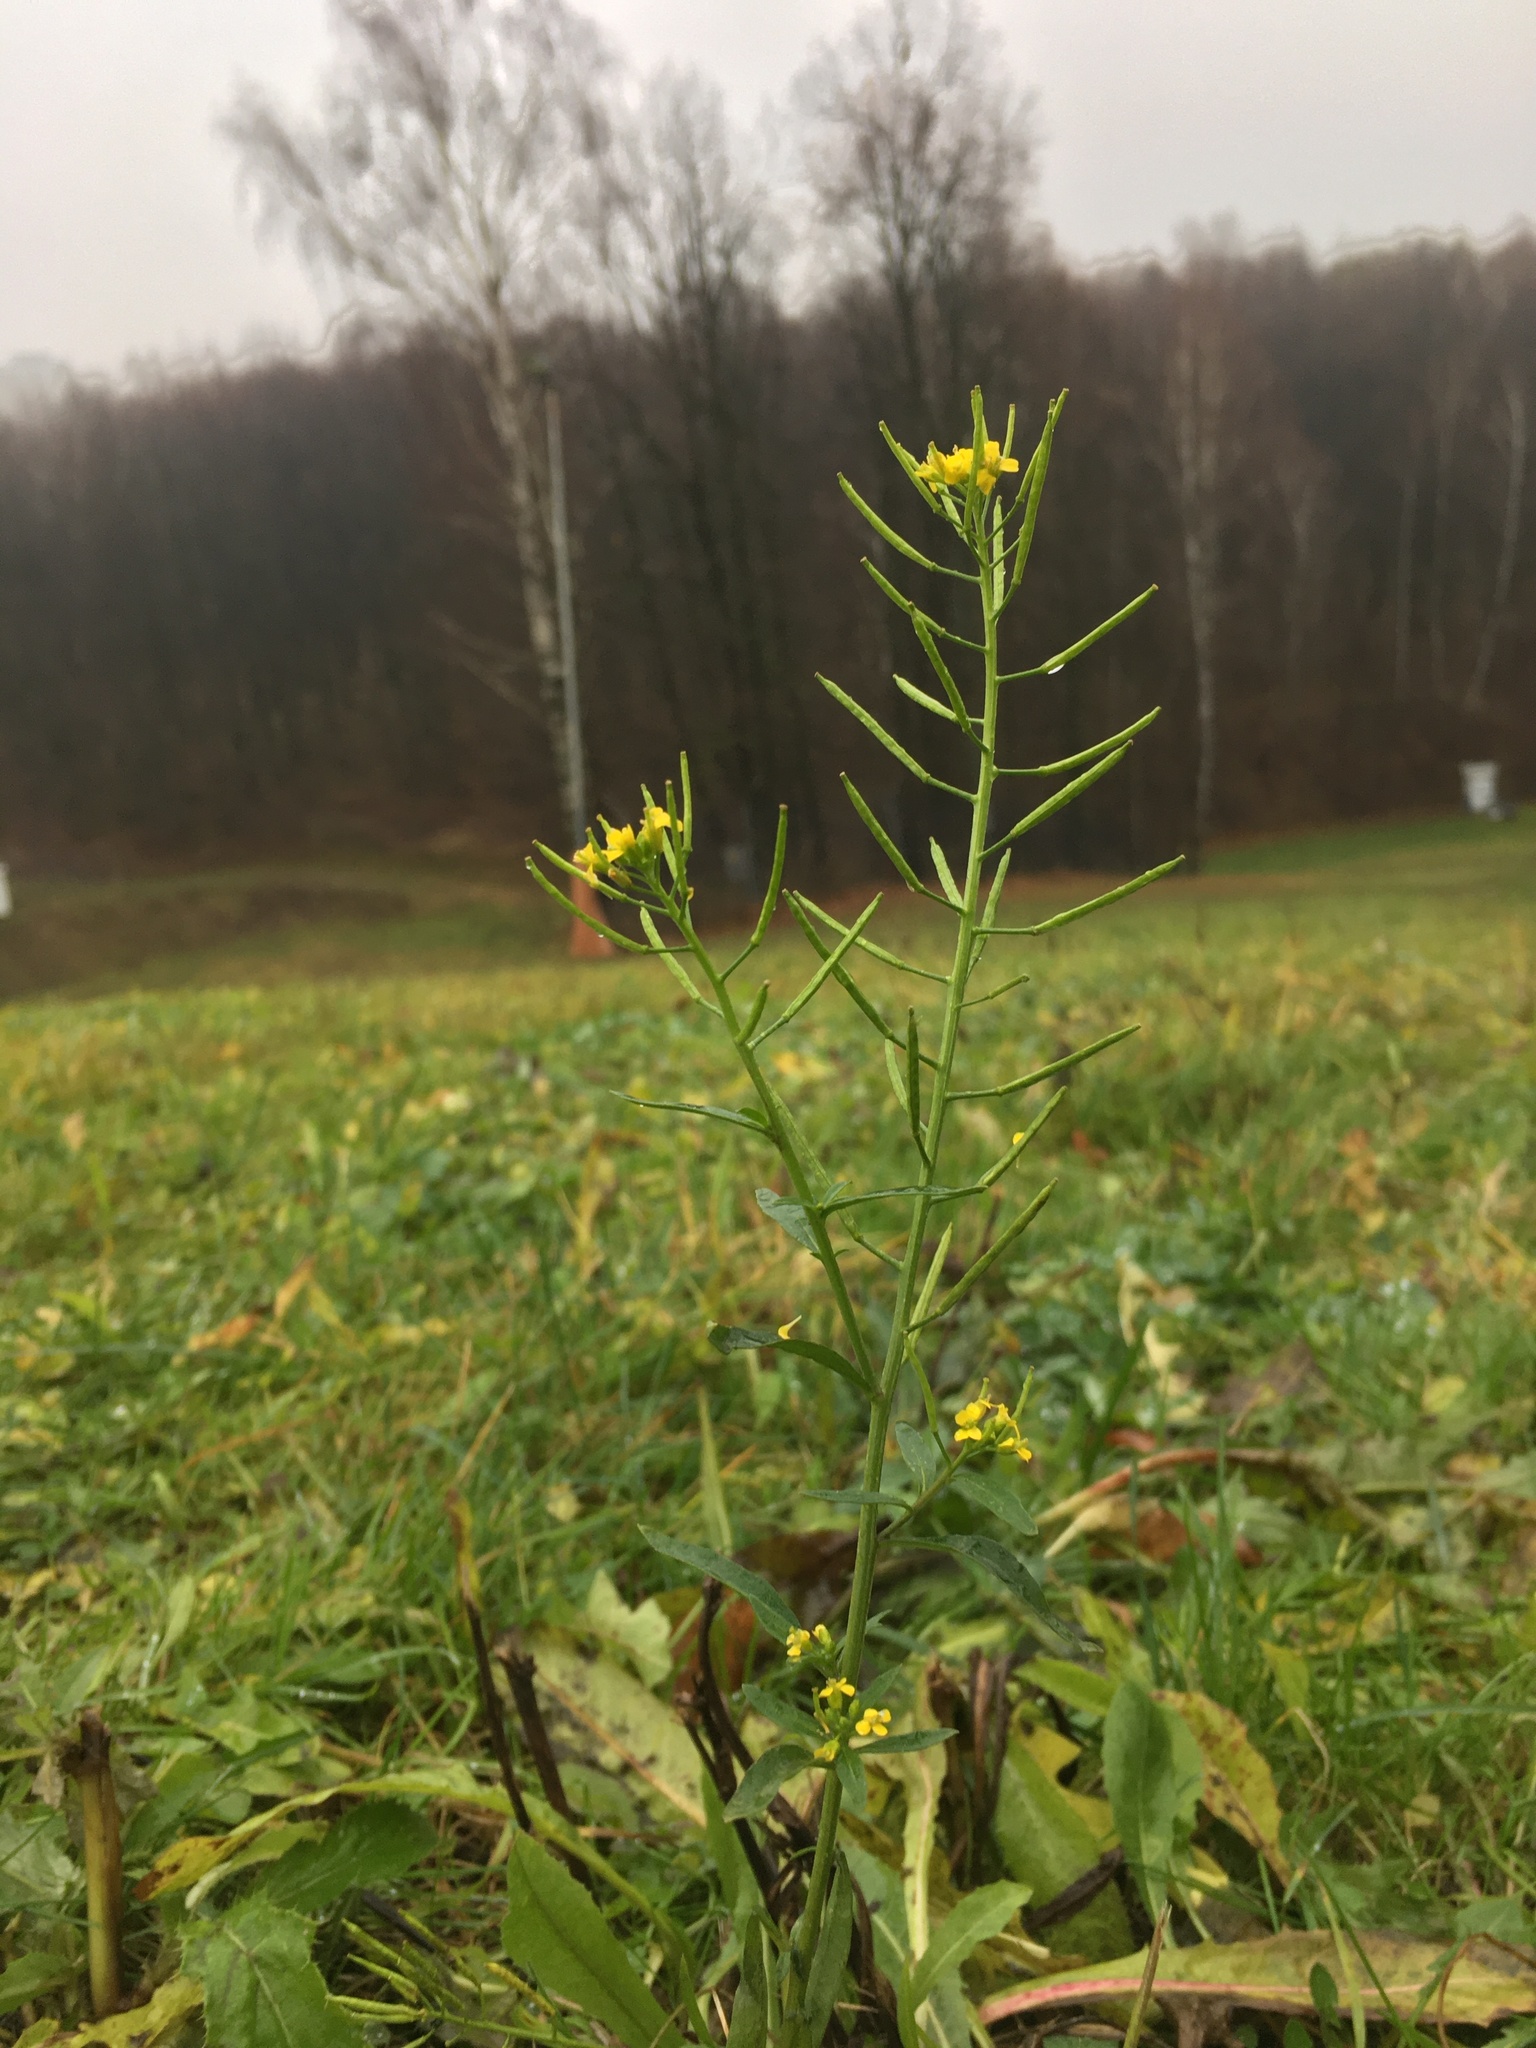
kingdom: Plantae
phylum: Tracheophyta
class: Magnoliopsida
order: Brassicales
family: Brassicaceae
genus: Erysimum
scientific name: Erysimum cheiranthoides
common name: Treacle mustard
